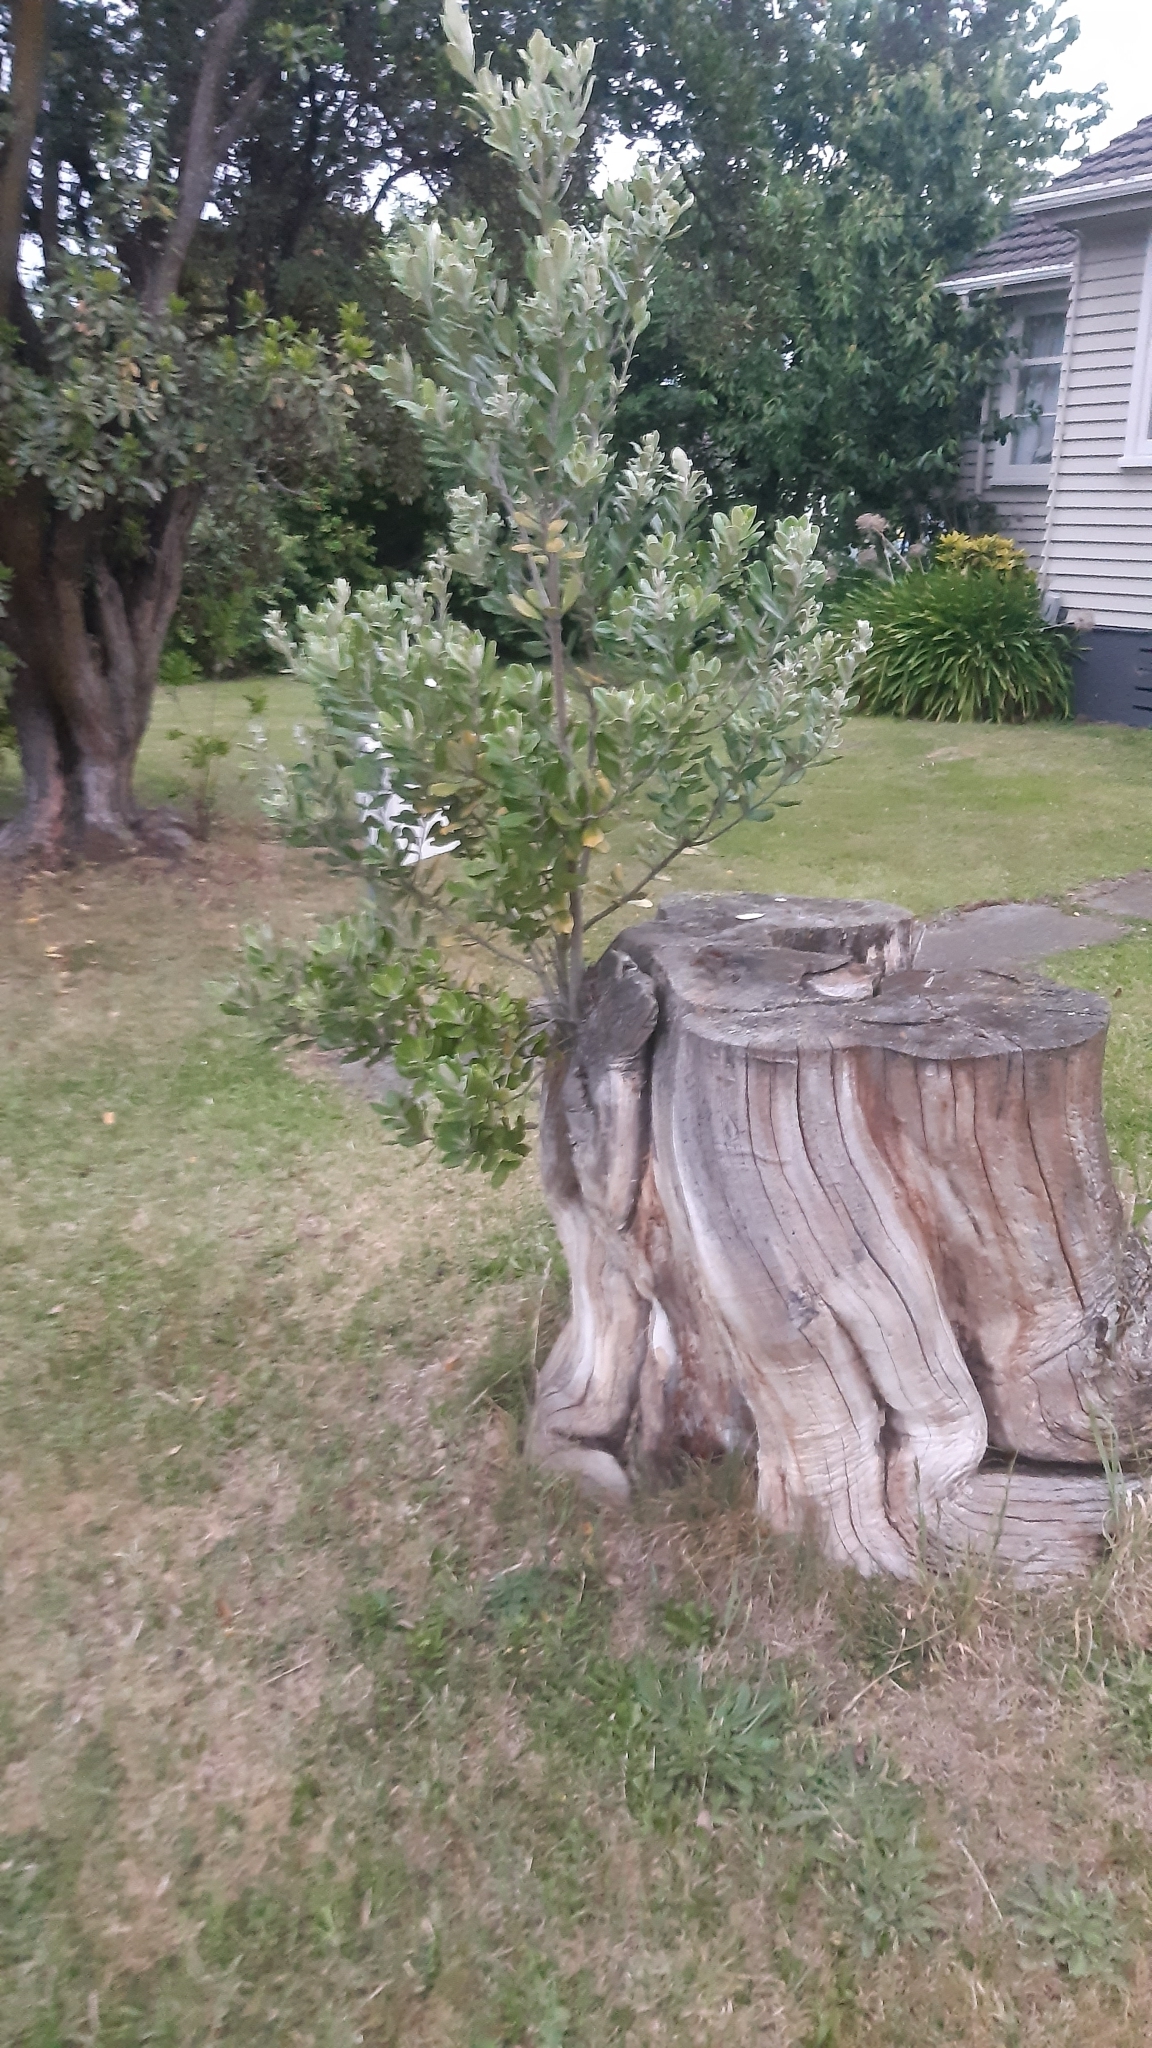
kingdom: Plantae
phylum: Tracheophyta
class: Magnoliopsida
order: Apiales
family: Pittosporaceae
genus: Pittosporum
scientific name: Pittosporum crassifolium
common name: Karo
